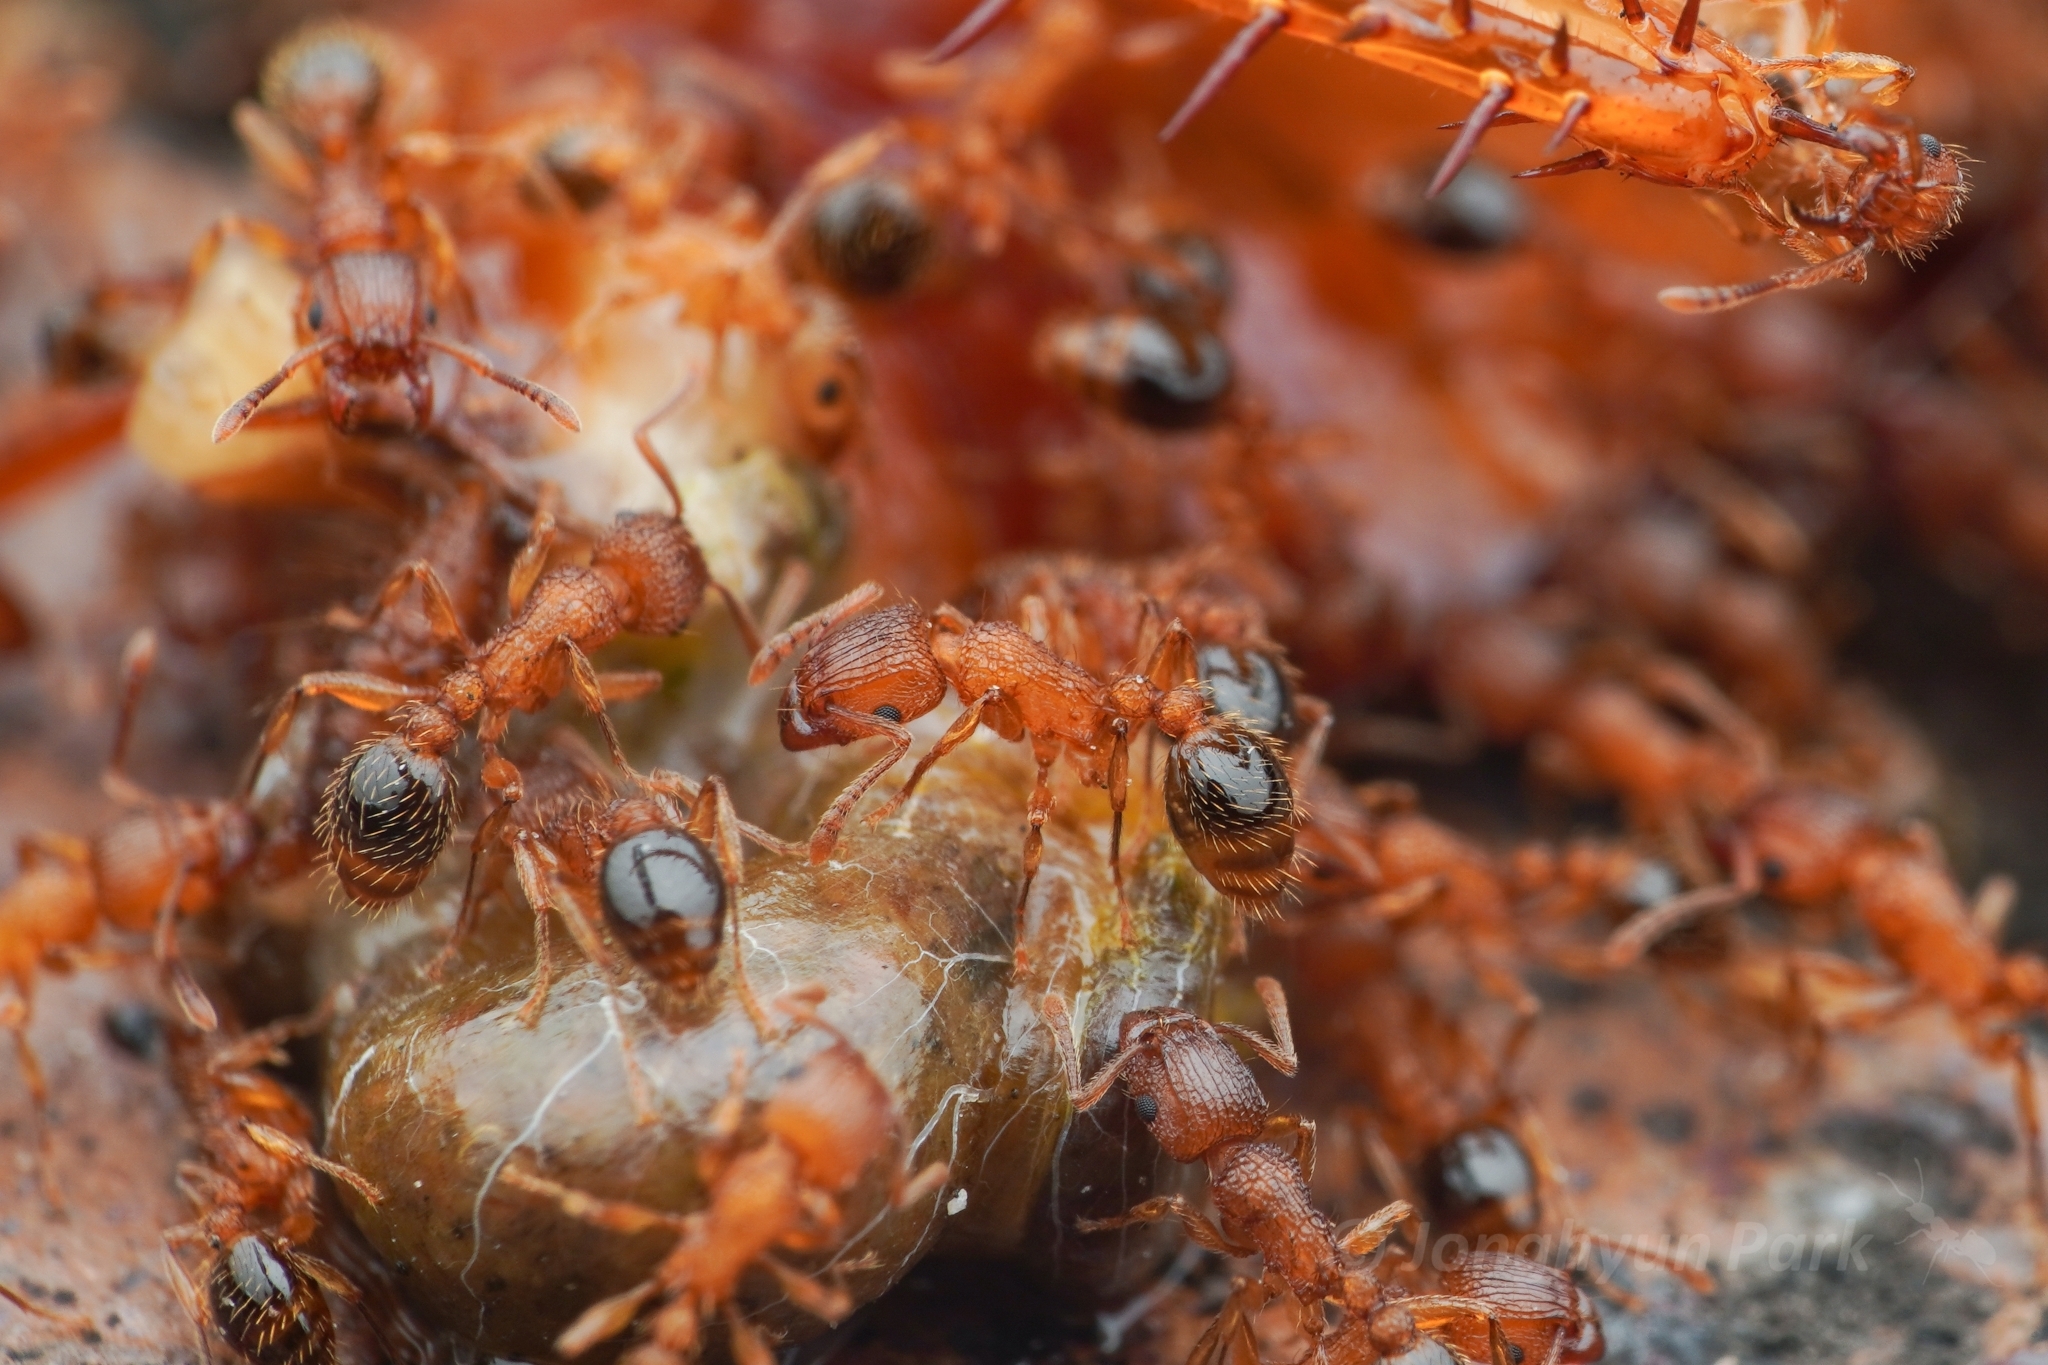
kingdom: Animalia
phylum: Arthropoda
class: Insecta
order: Hymenoptera
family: Formicidae
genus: Tetramorium
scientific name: Tetramorium bicarinatum
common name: Guinea ant
